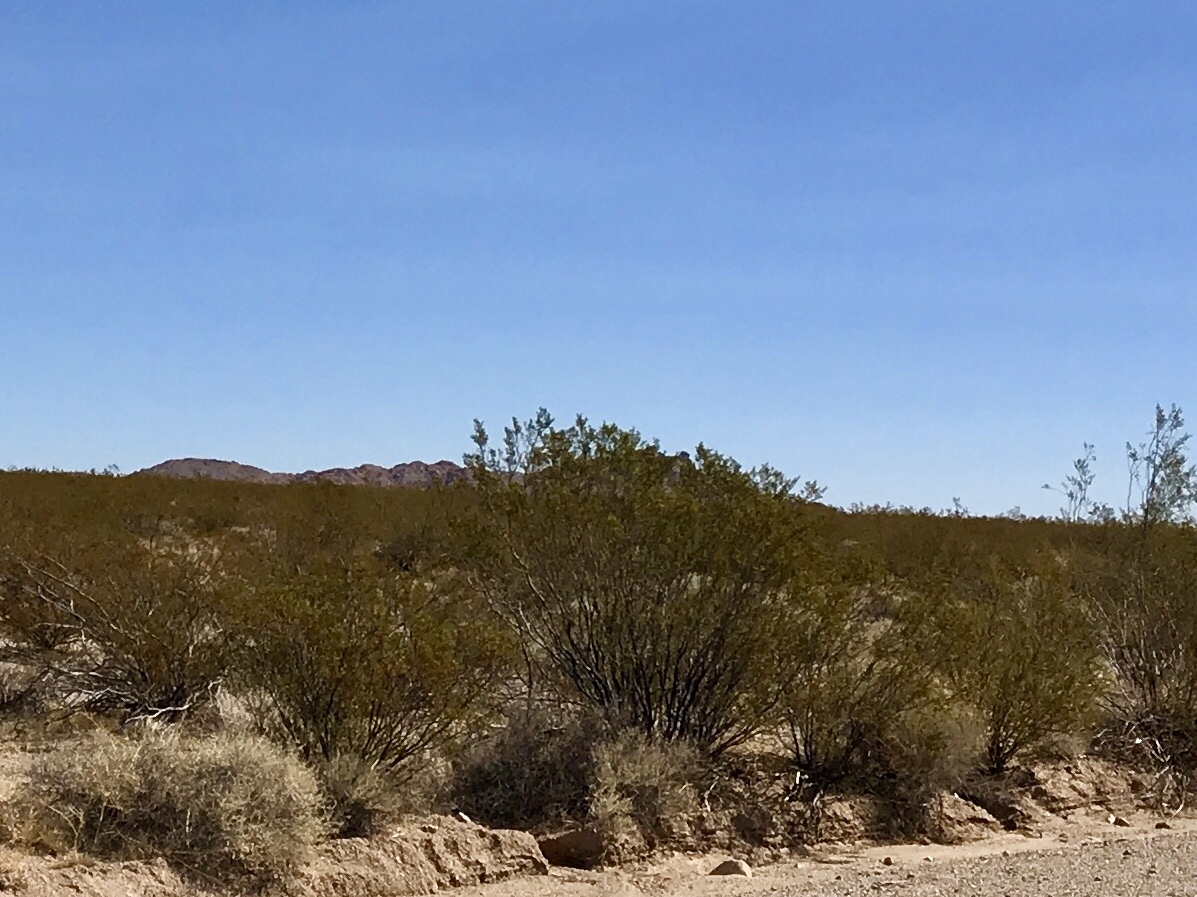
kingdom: Plantae
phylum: Tracheophyta
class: Magnoliopsida
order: Zygophyllales
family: Zygophyllaceae
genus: Larrea
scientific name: Larrea tridentata
